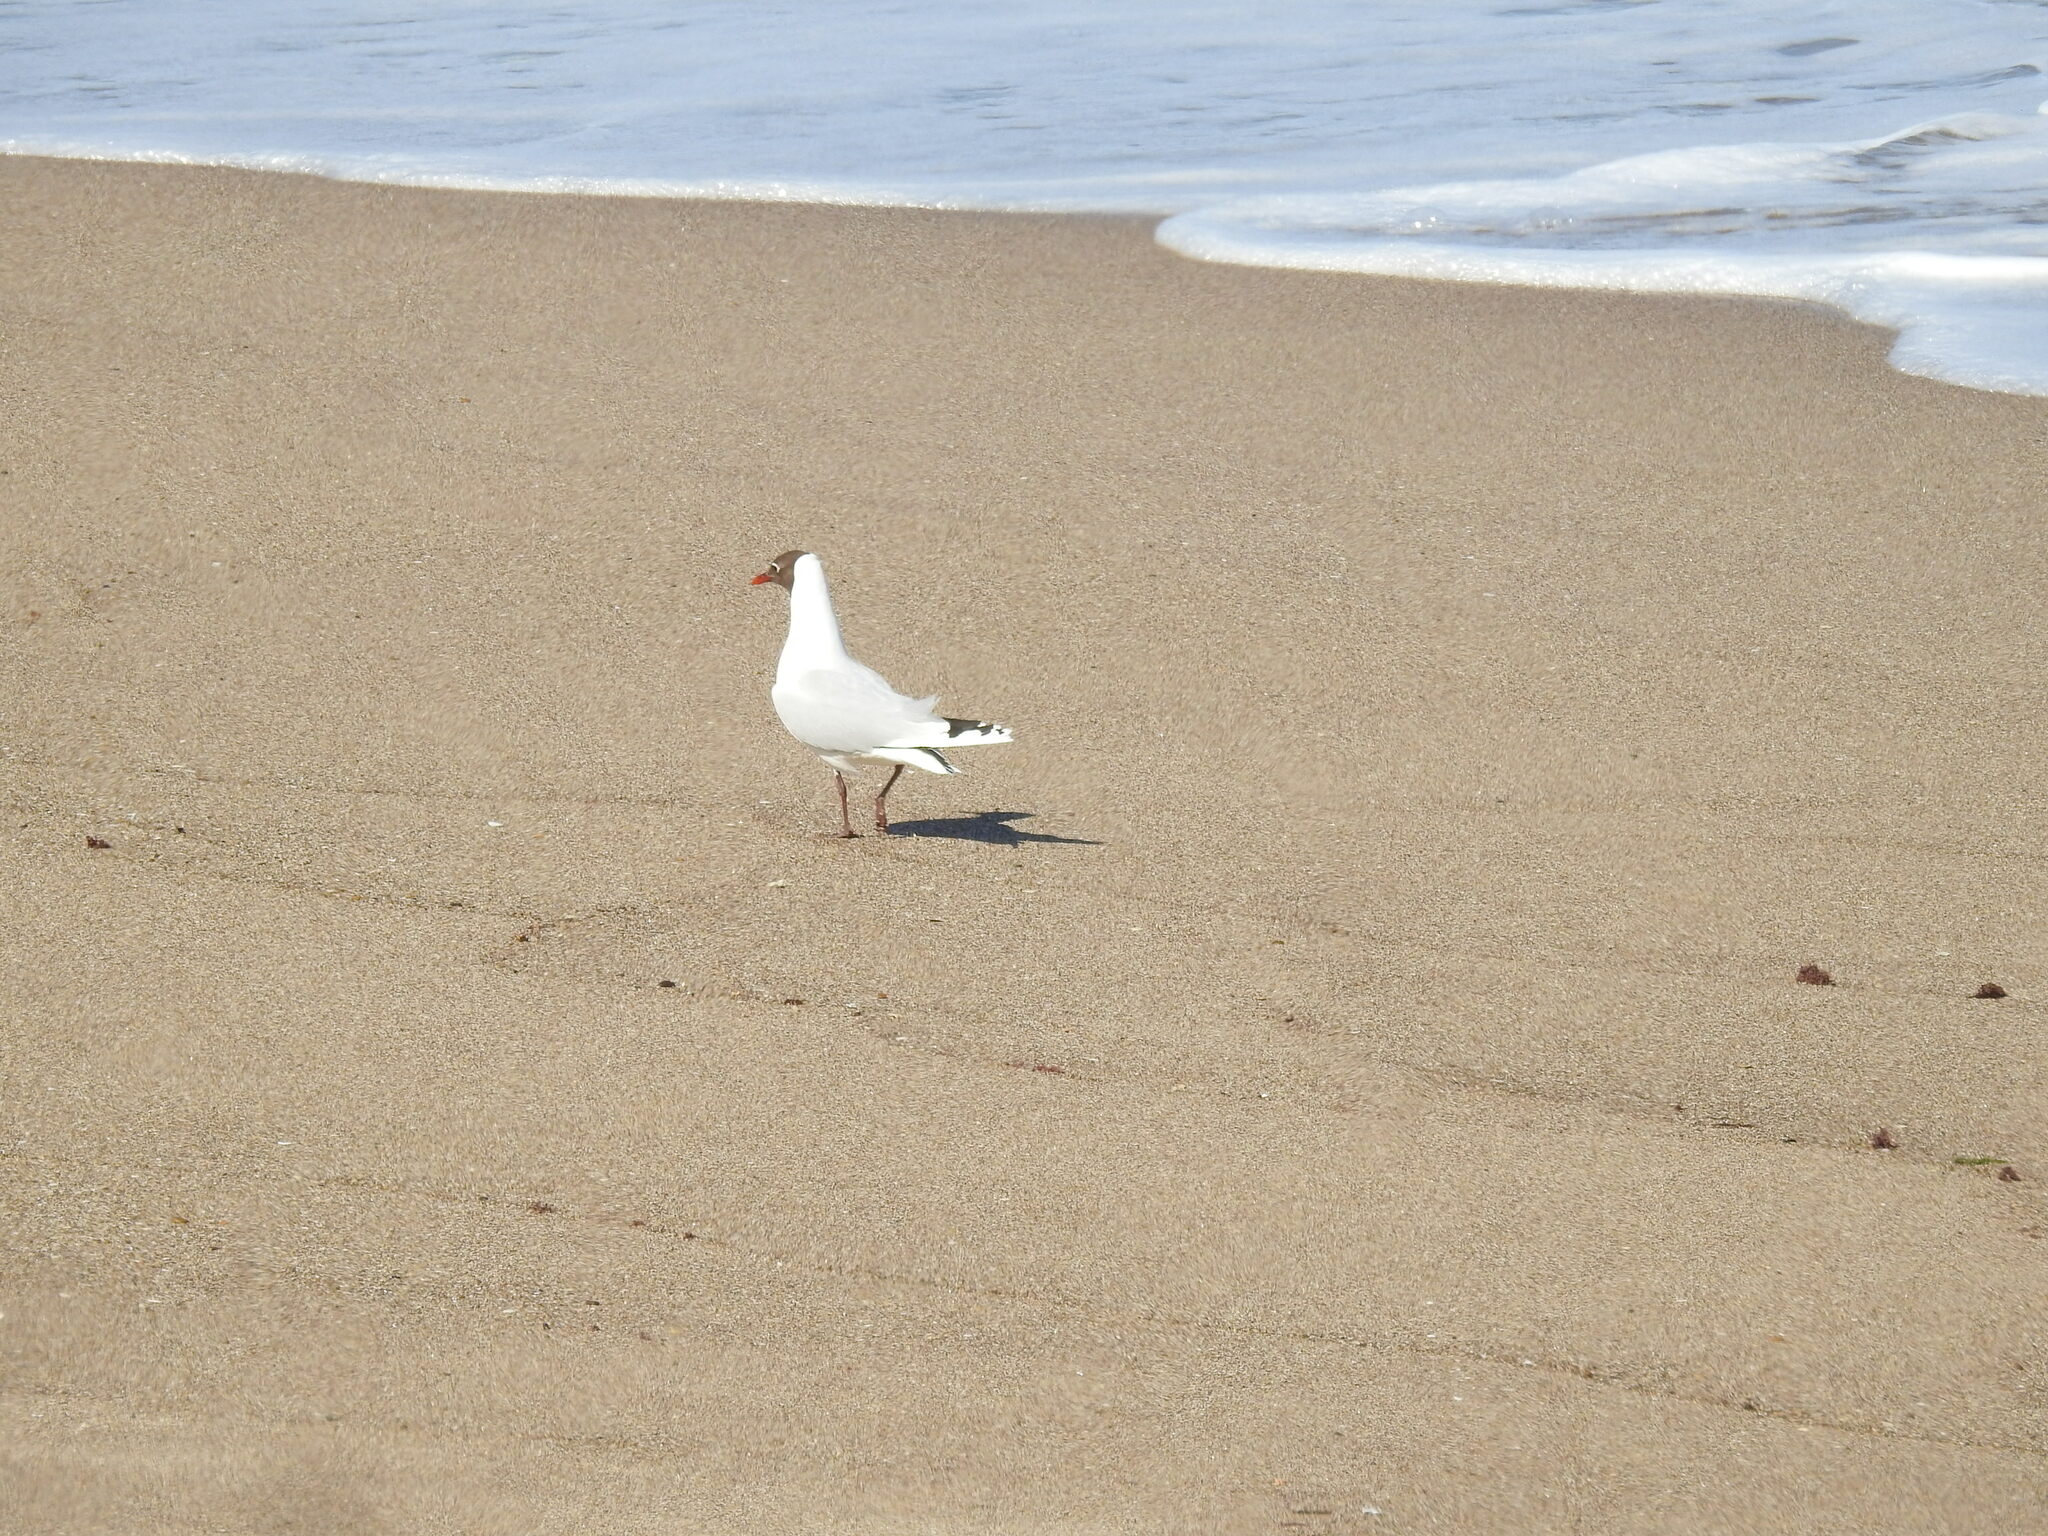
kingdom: Animalia
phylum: Chordata
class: Aves
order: Charadriiformes
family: Laridae
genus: Chroicocephalus
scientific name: Chroicocephalus maculipennis
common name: Brown-hooded gull
